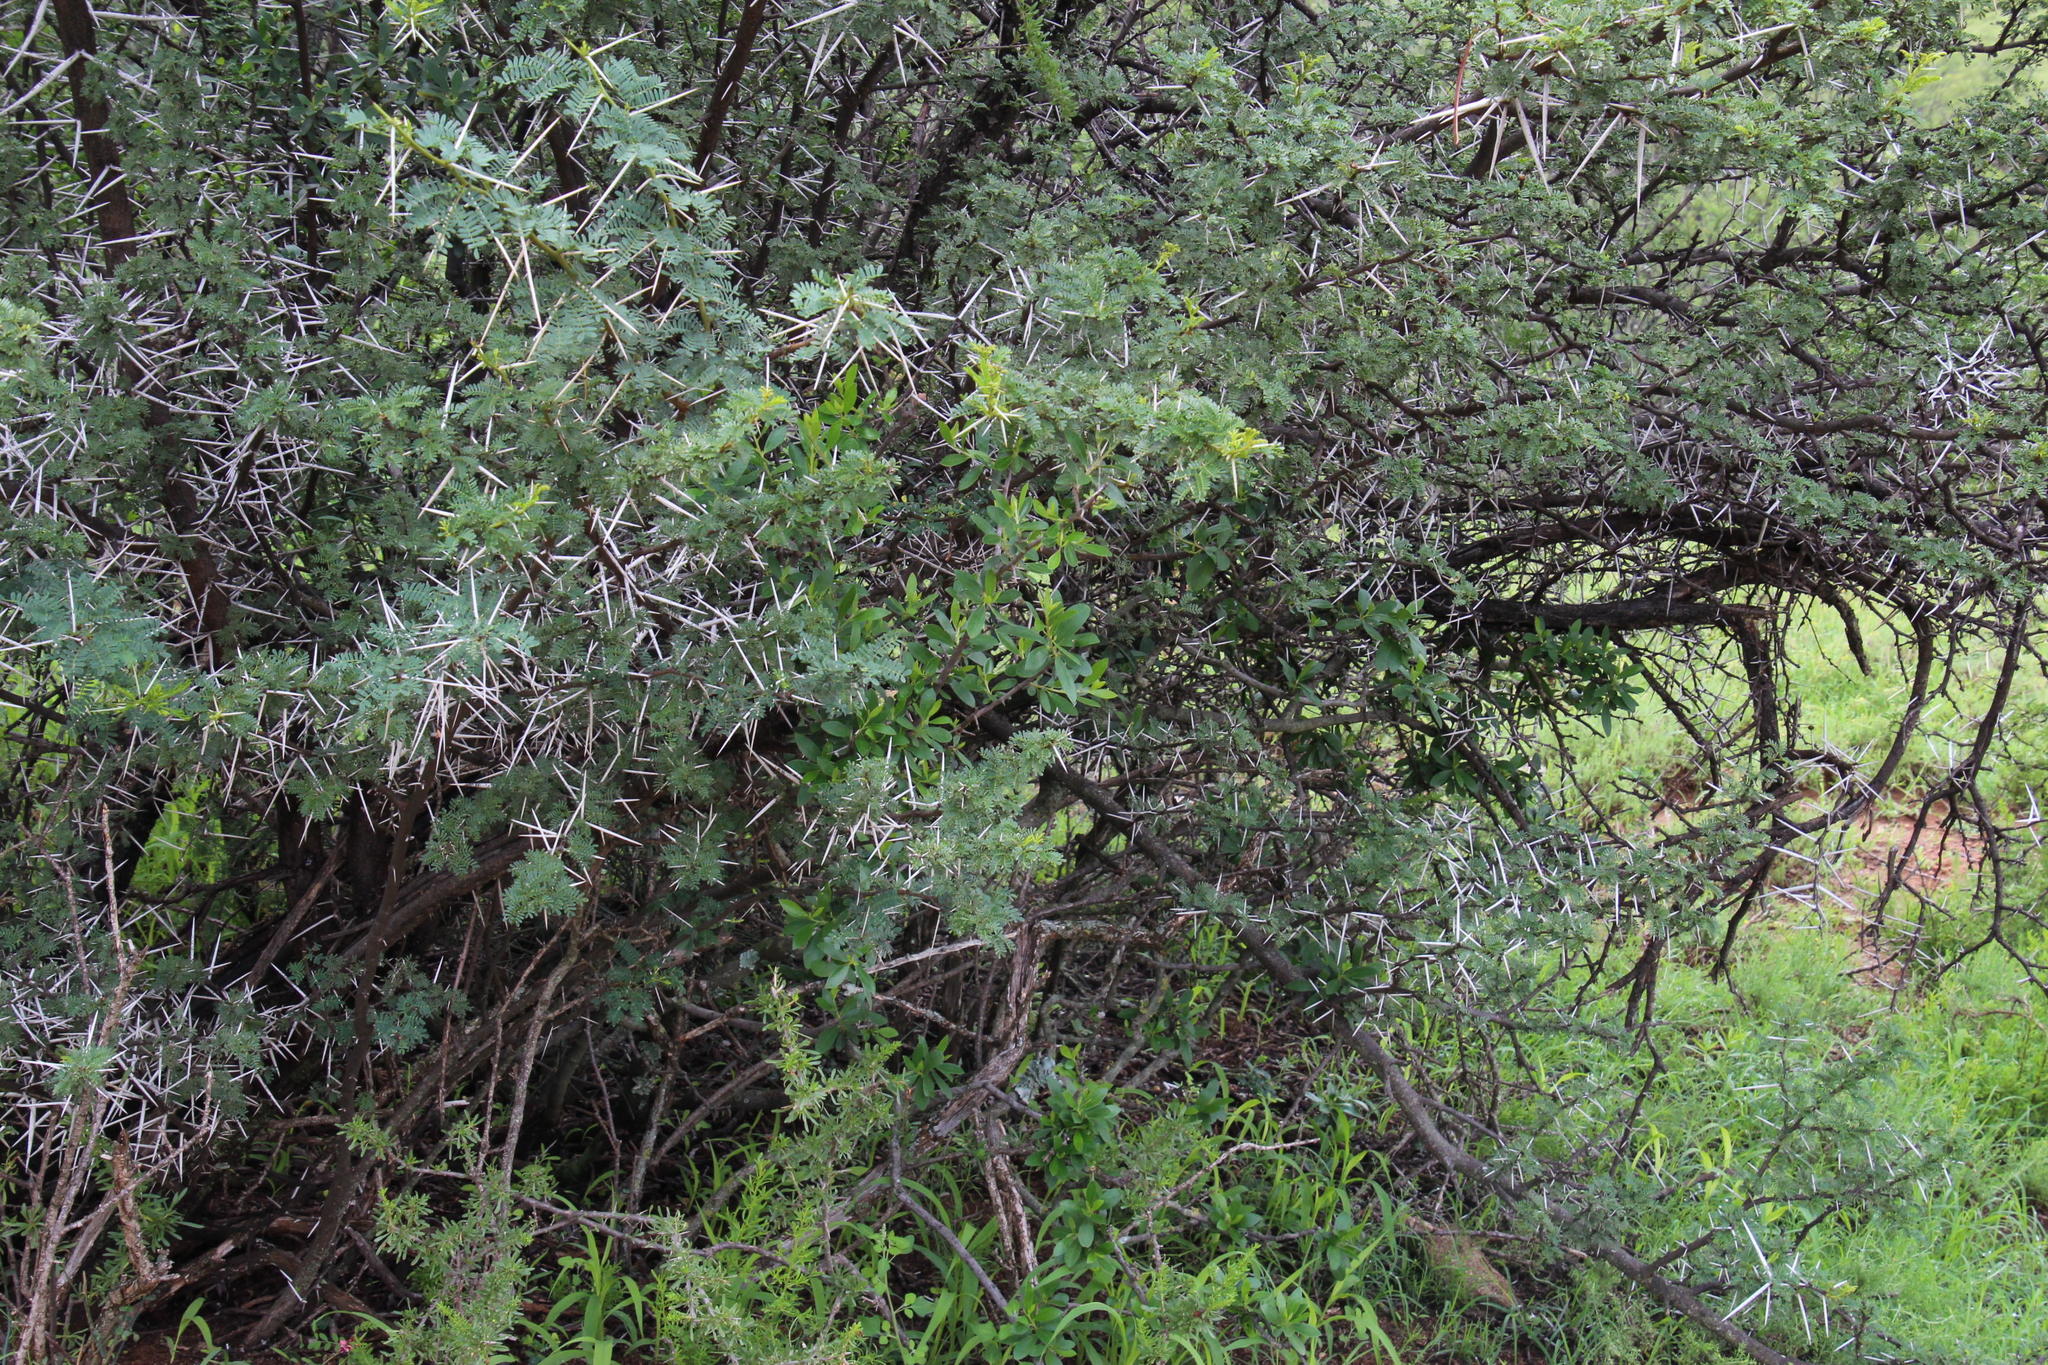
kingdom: Plantae
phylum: Tracheophyta
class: Magnoliopsida
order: Ericales
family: Ebenaceae
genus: Diospyros
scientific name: Diospyros lycioides
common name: Red star apple
